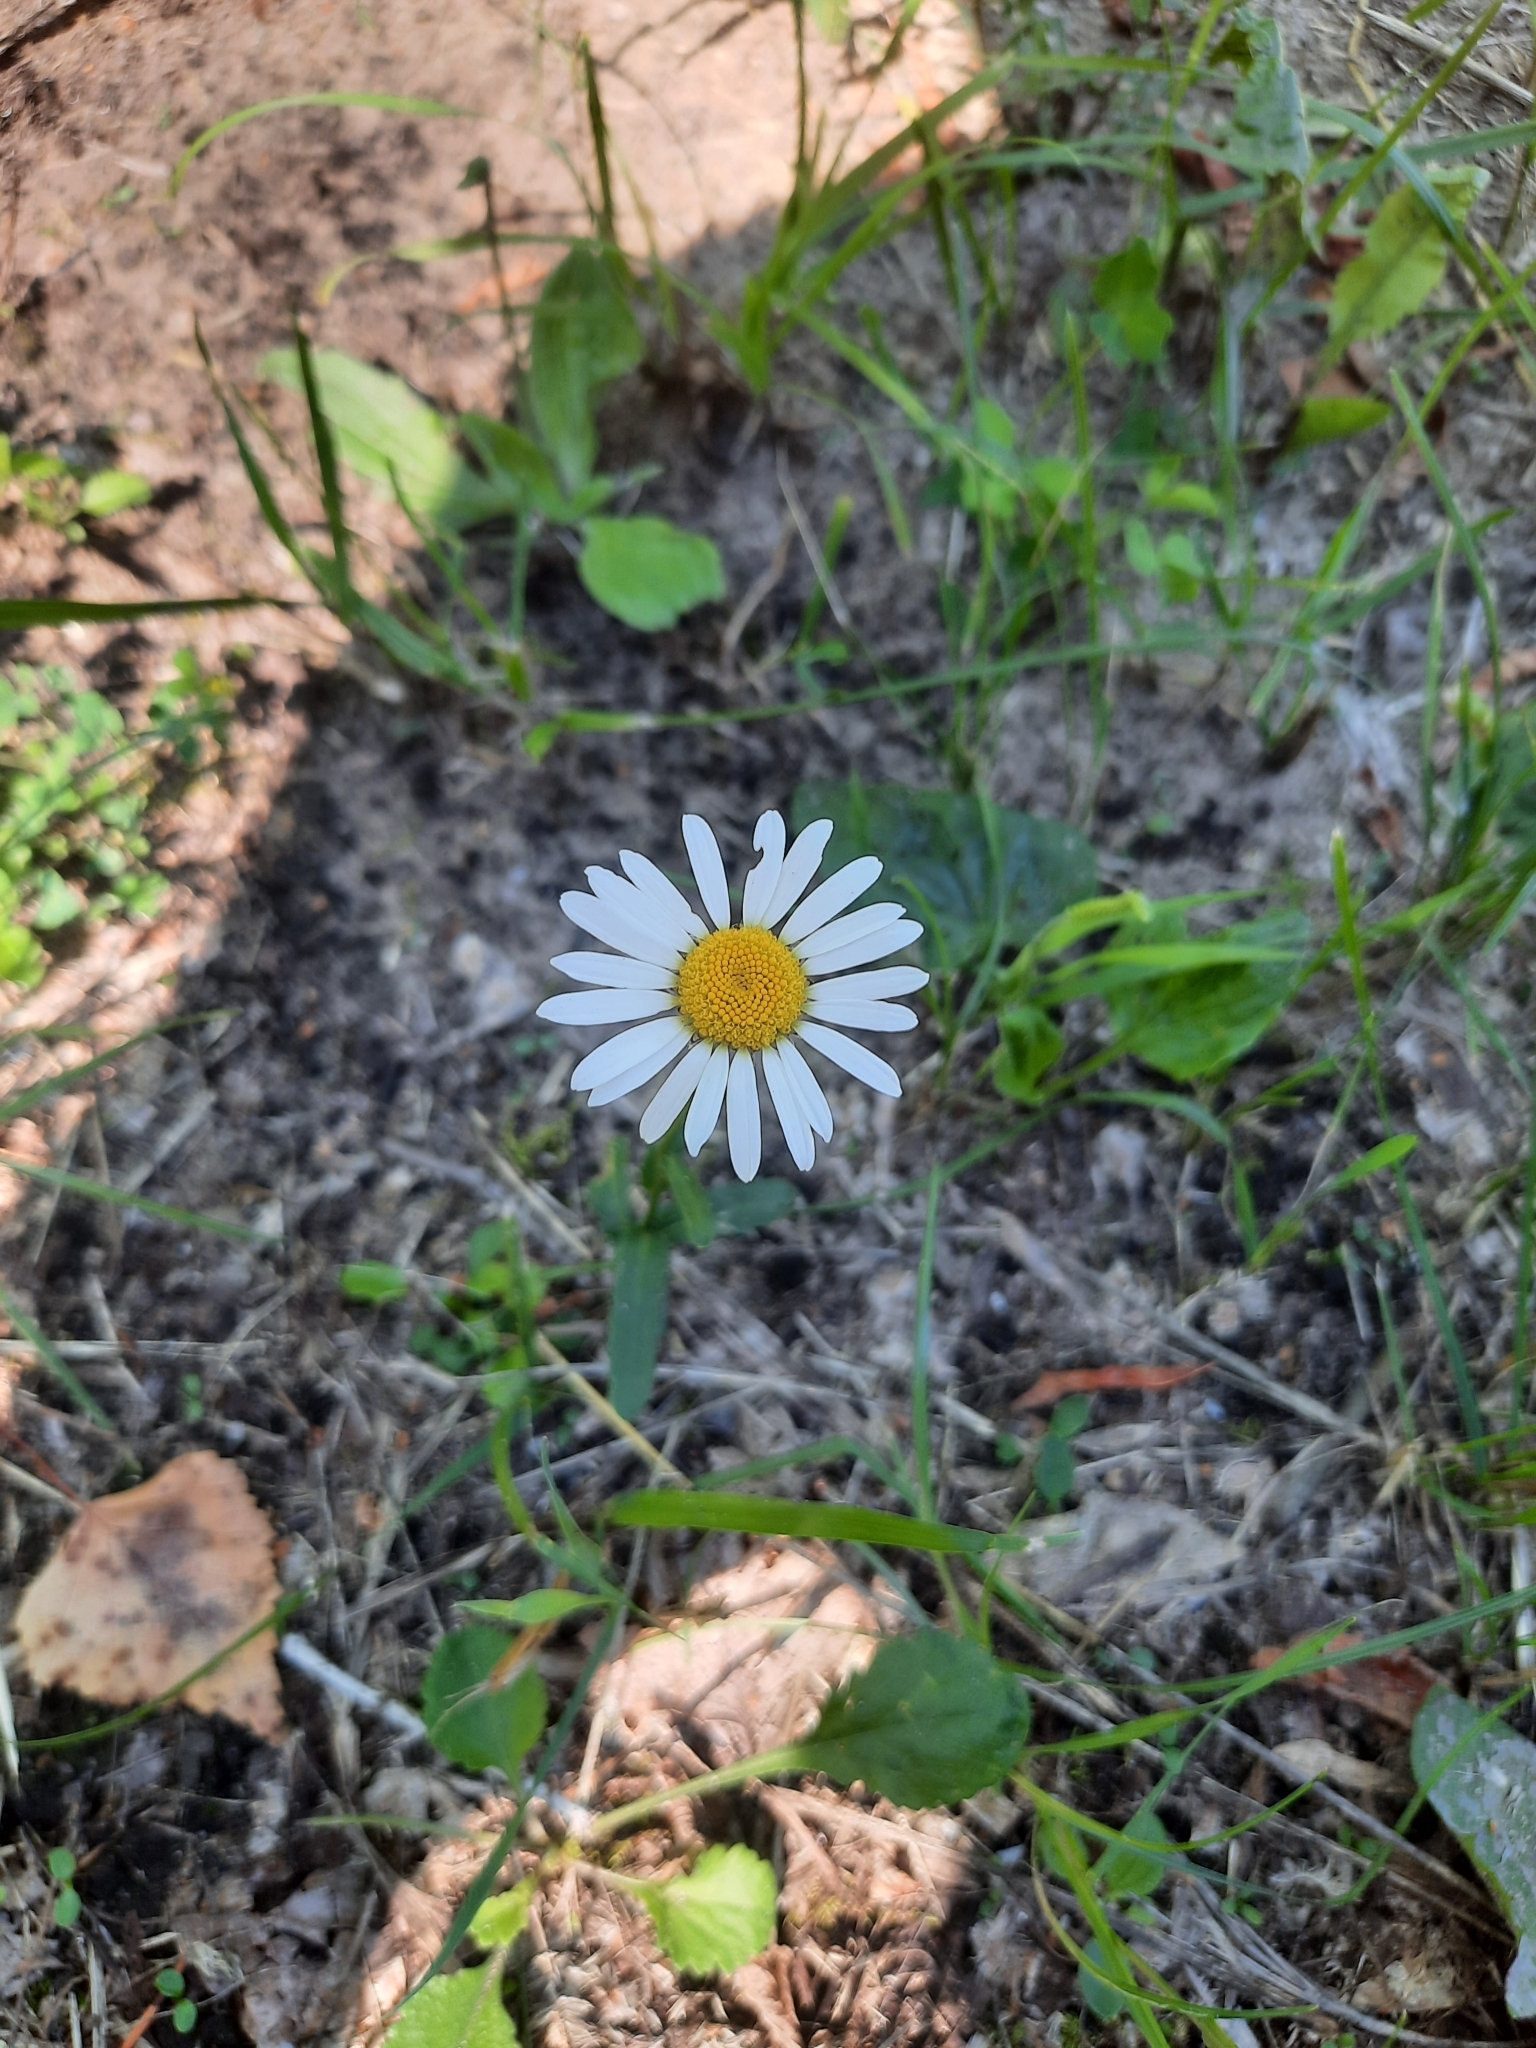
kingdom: Plantae
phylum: Tracheophyta
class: Magnoliopsida
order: Asterales
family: Asteraceae
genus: Leucanthemum
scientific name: Leucanthemum vulgare
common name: Oxeye daisy
